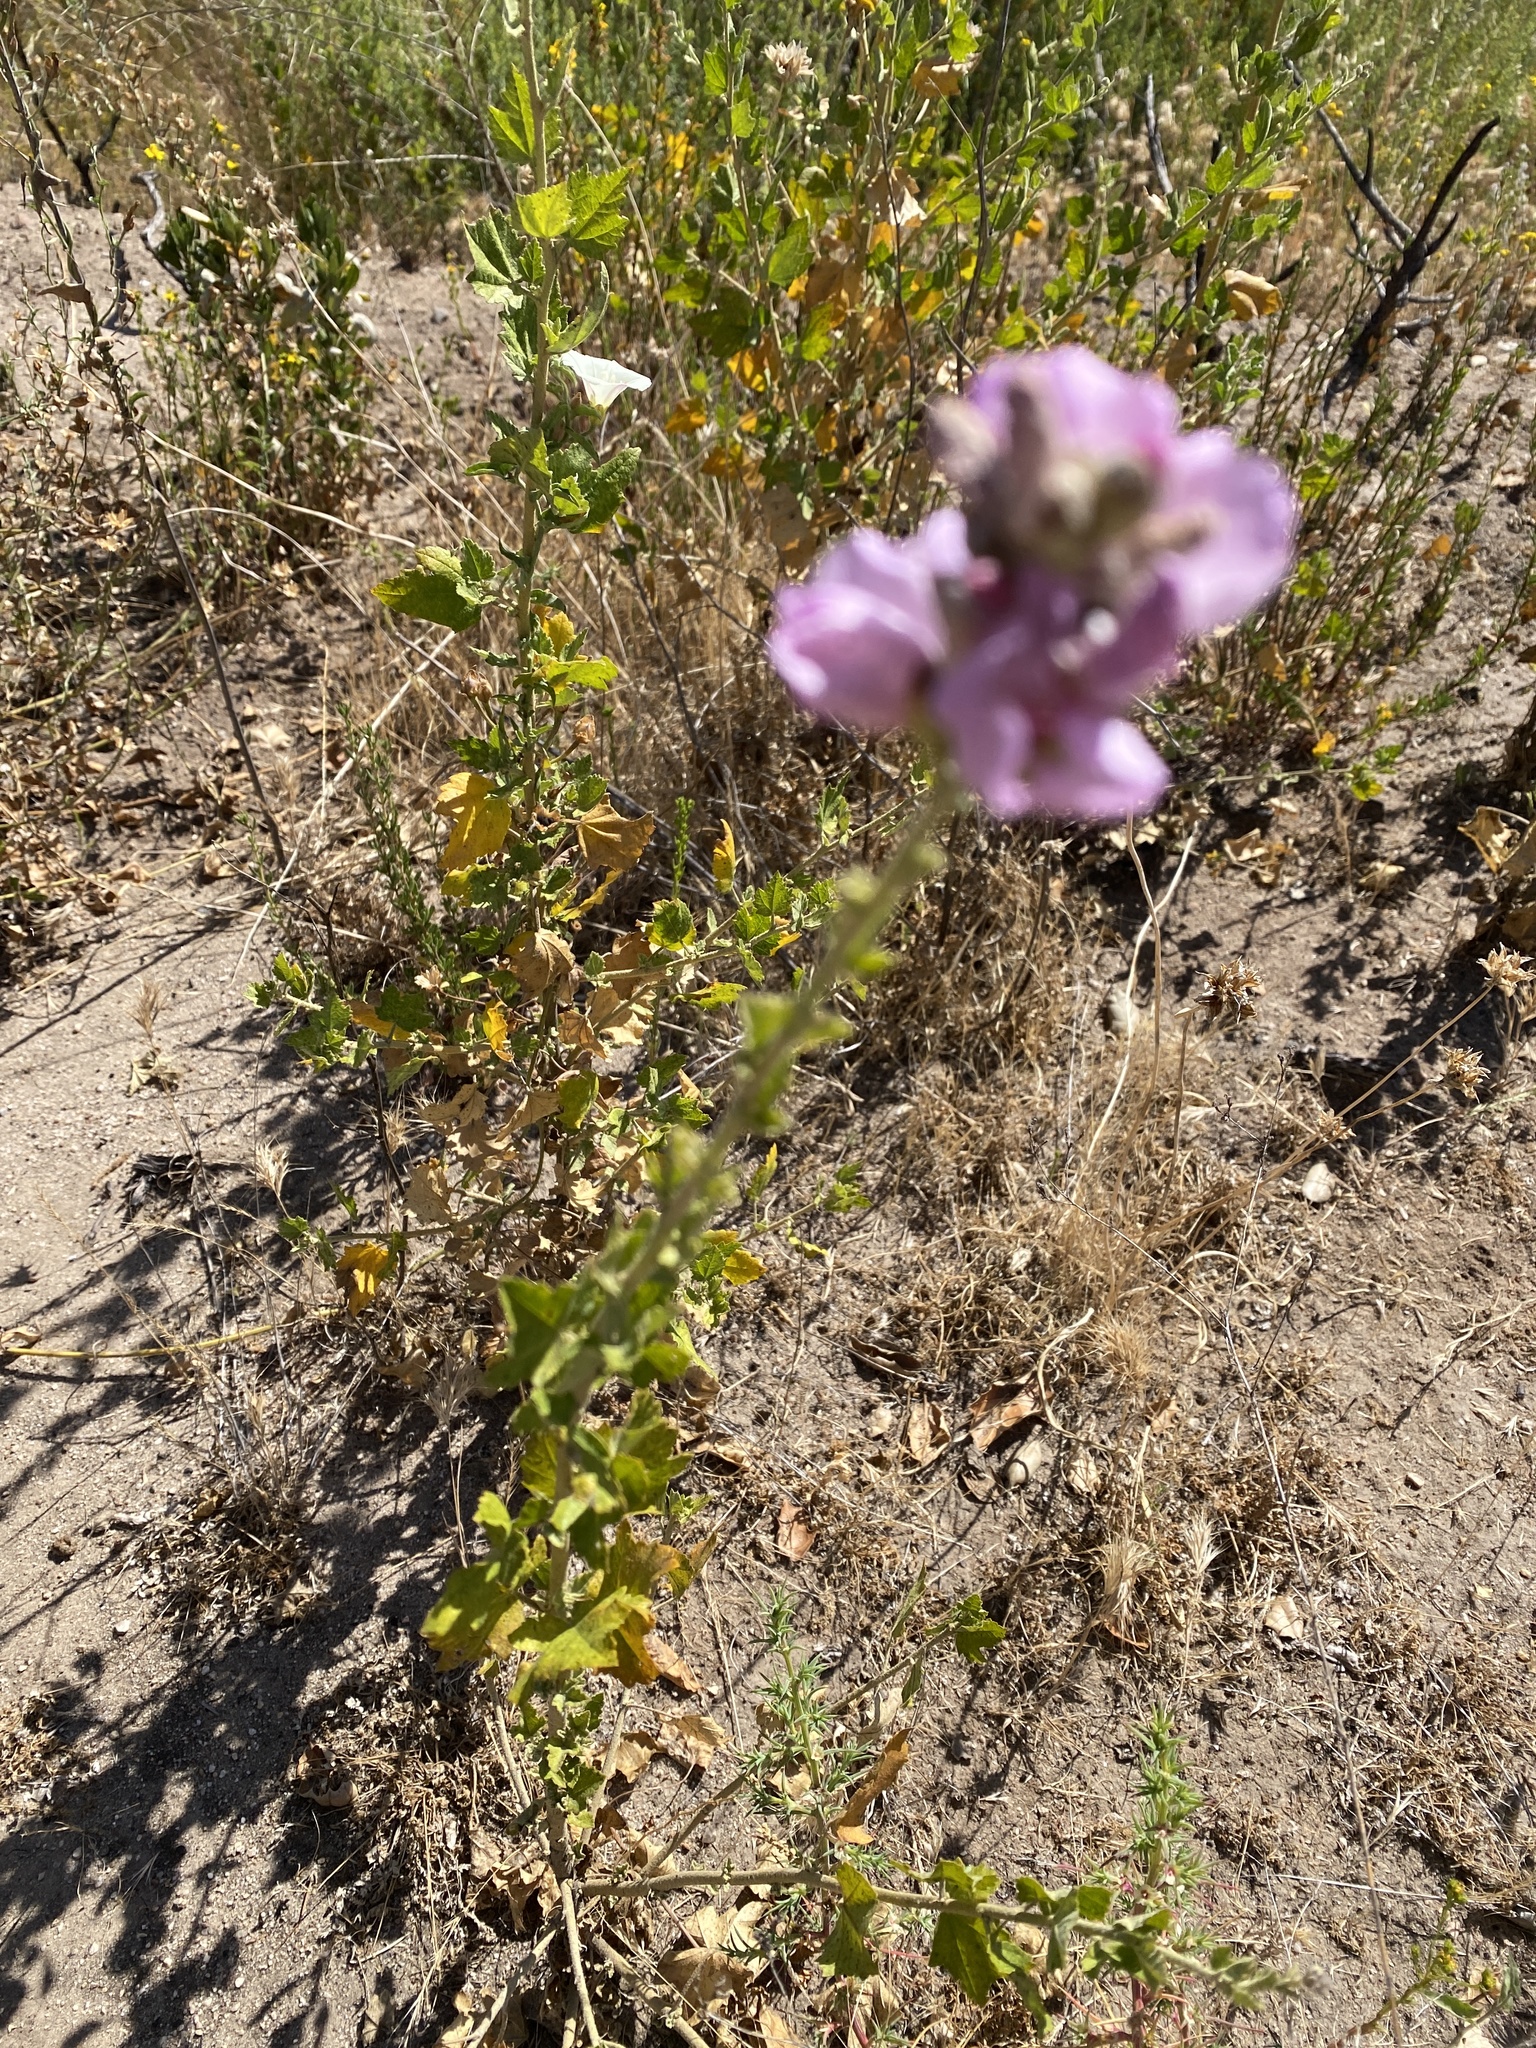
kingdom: Plantae
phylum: Tracheophyta
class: Magnoliopsida
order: Malvales
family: Malvaceae
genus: Malacothamnus
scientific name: Malacothamnus fasciculatus
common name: Sant cruz island bush-mallow
